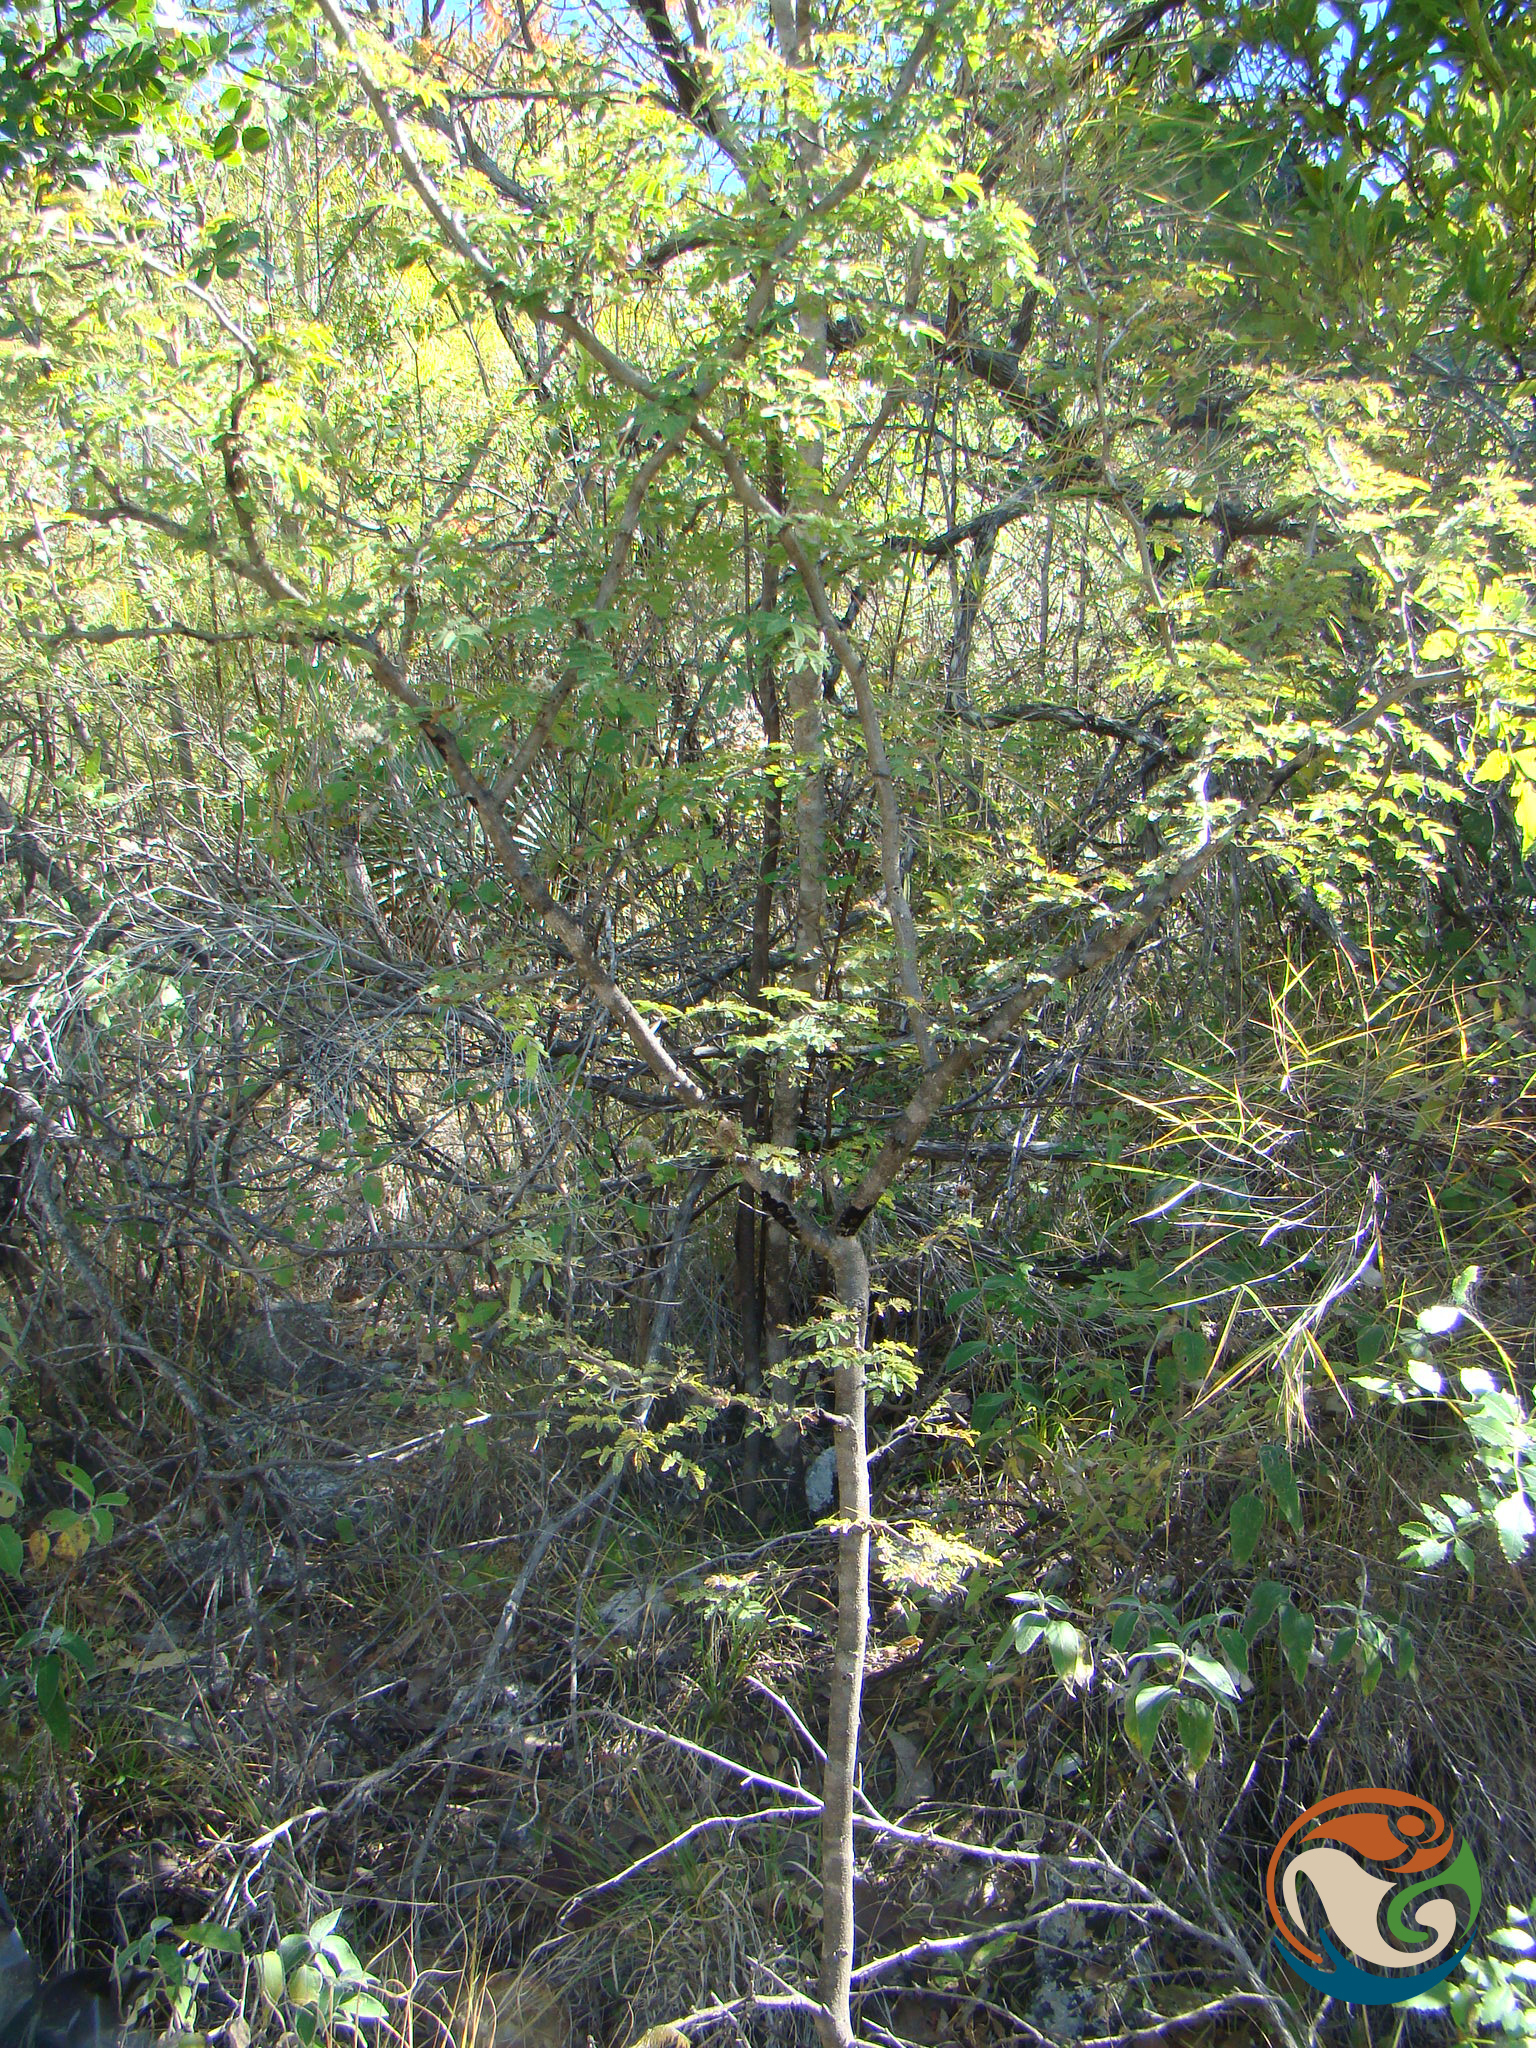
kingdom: Plantae
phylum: Tracheophyta
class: Magnoliopsida
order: Fabales
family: Fabaceae
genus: Mimosa
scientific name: Mimosa lacerata
